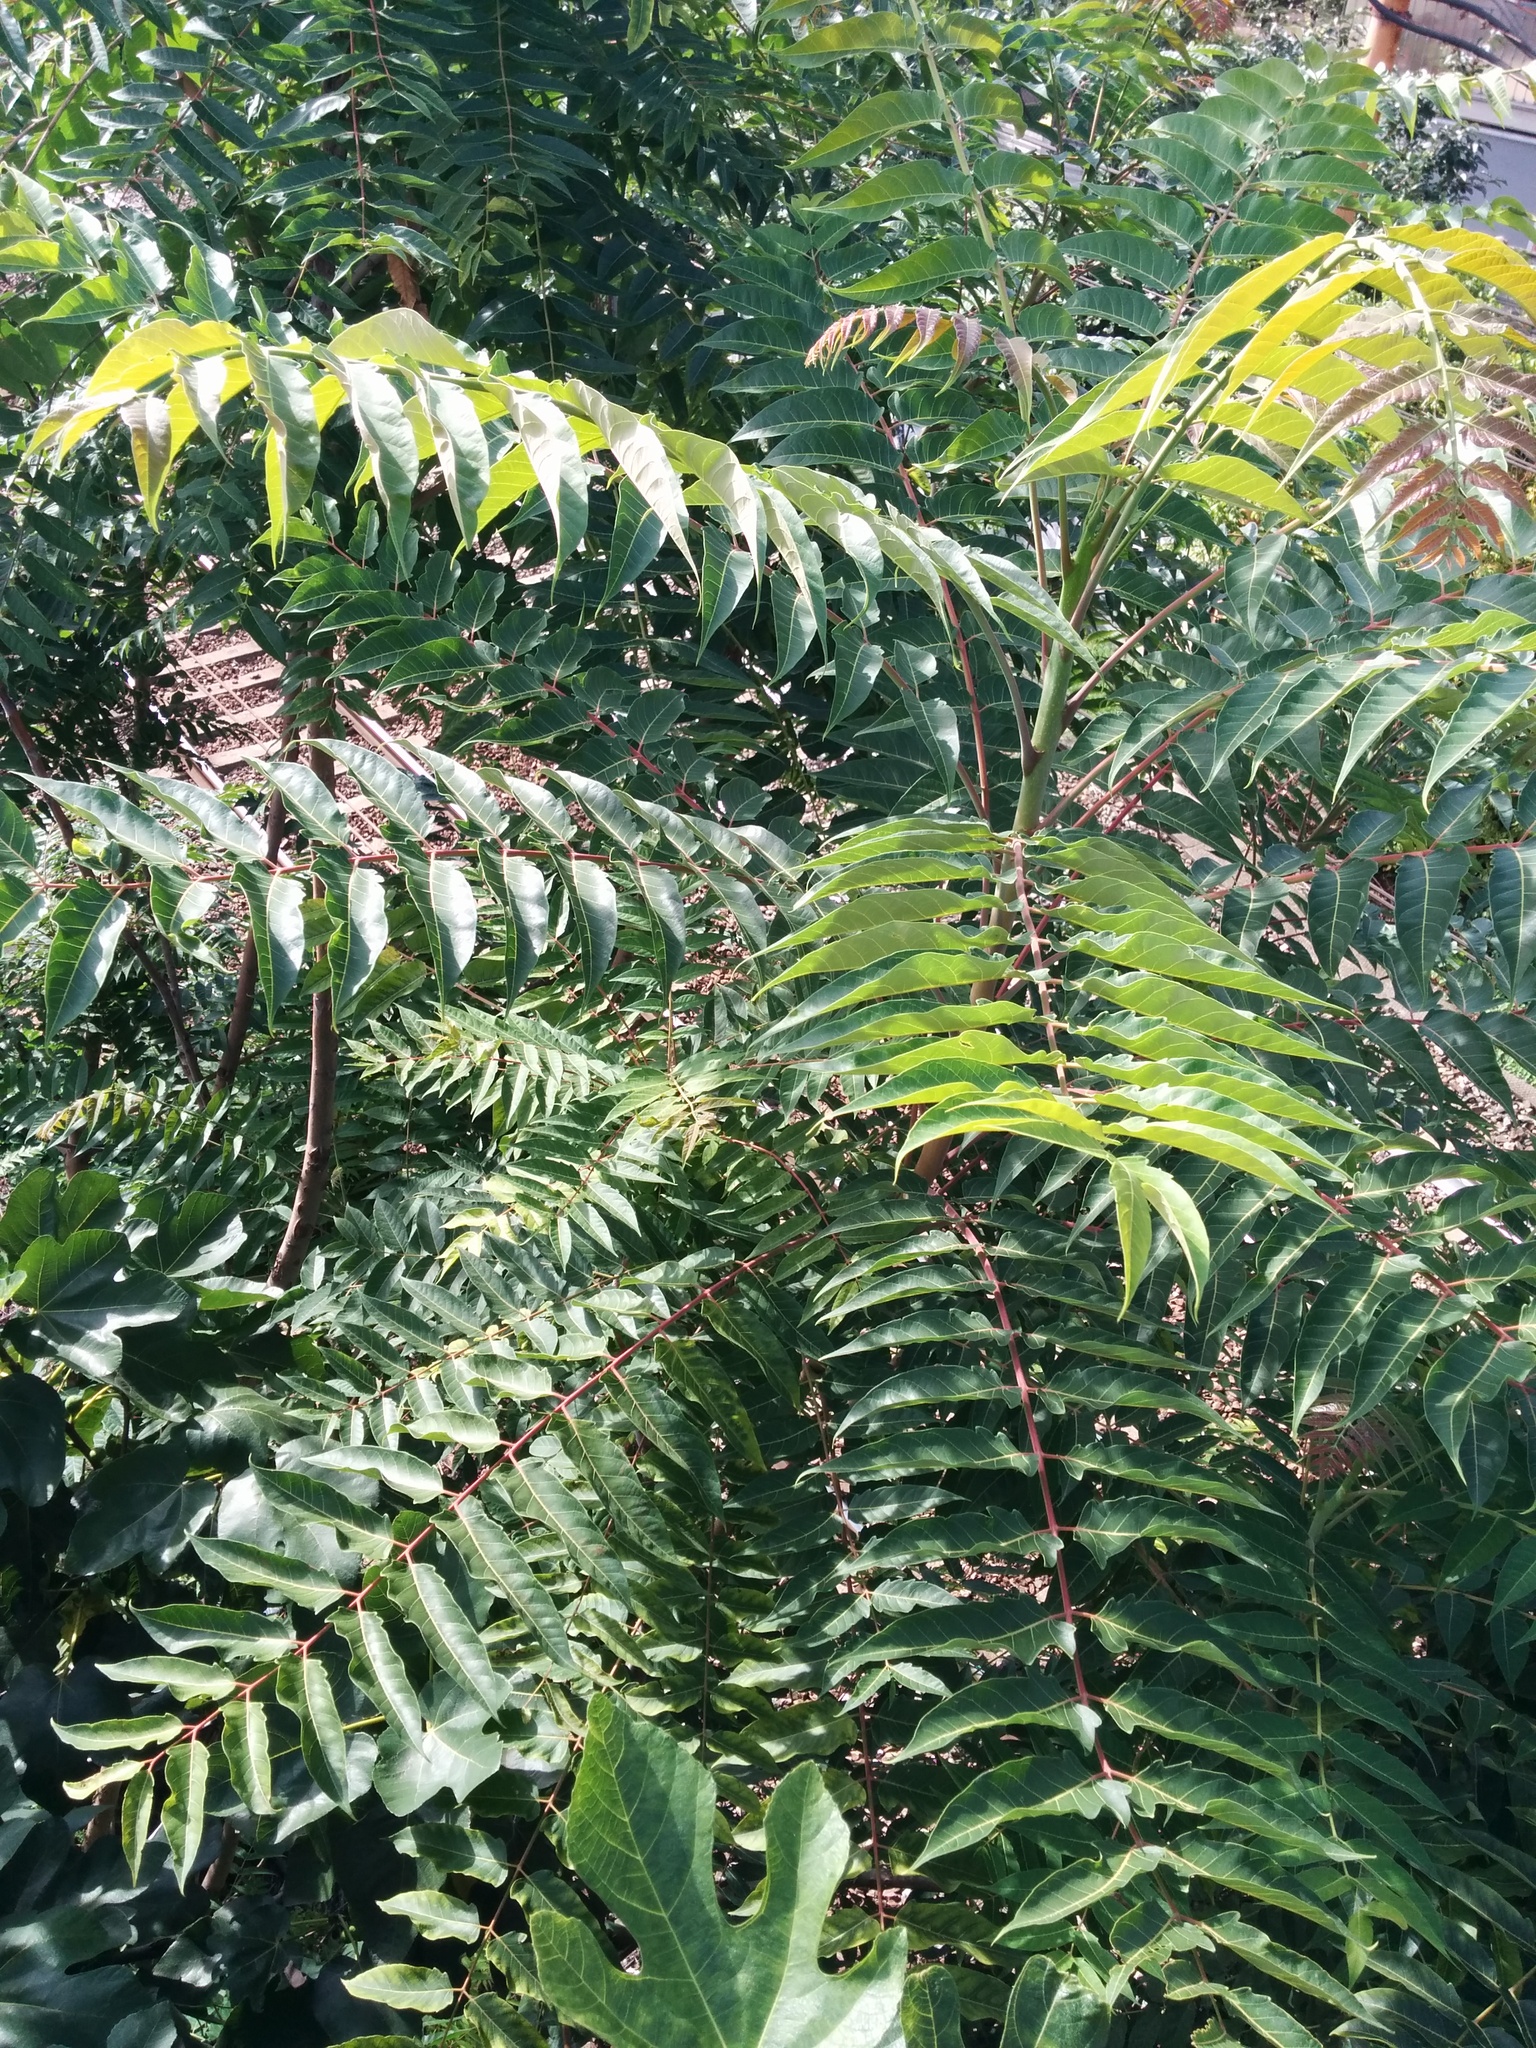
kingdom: Plantae
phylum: Tracheophyta
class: Magnoliopsida
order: Sapindales
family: Simaroubaceae
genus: Ailanthus
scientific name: Ailanthus altissima
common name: Tree-of-heaven
